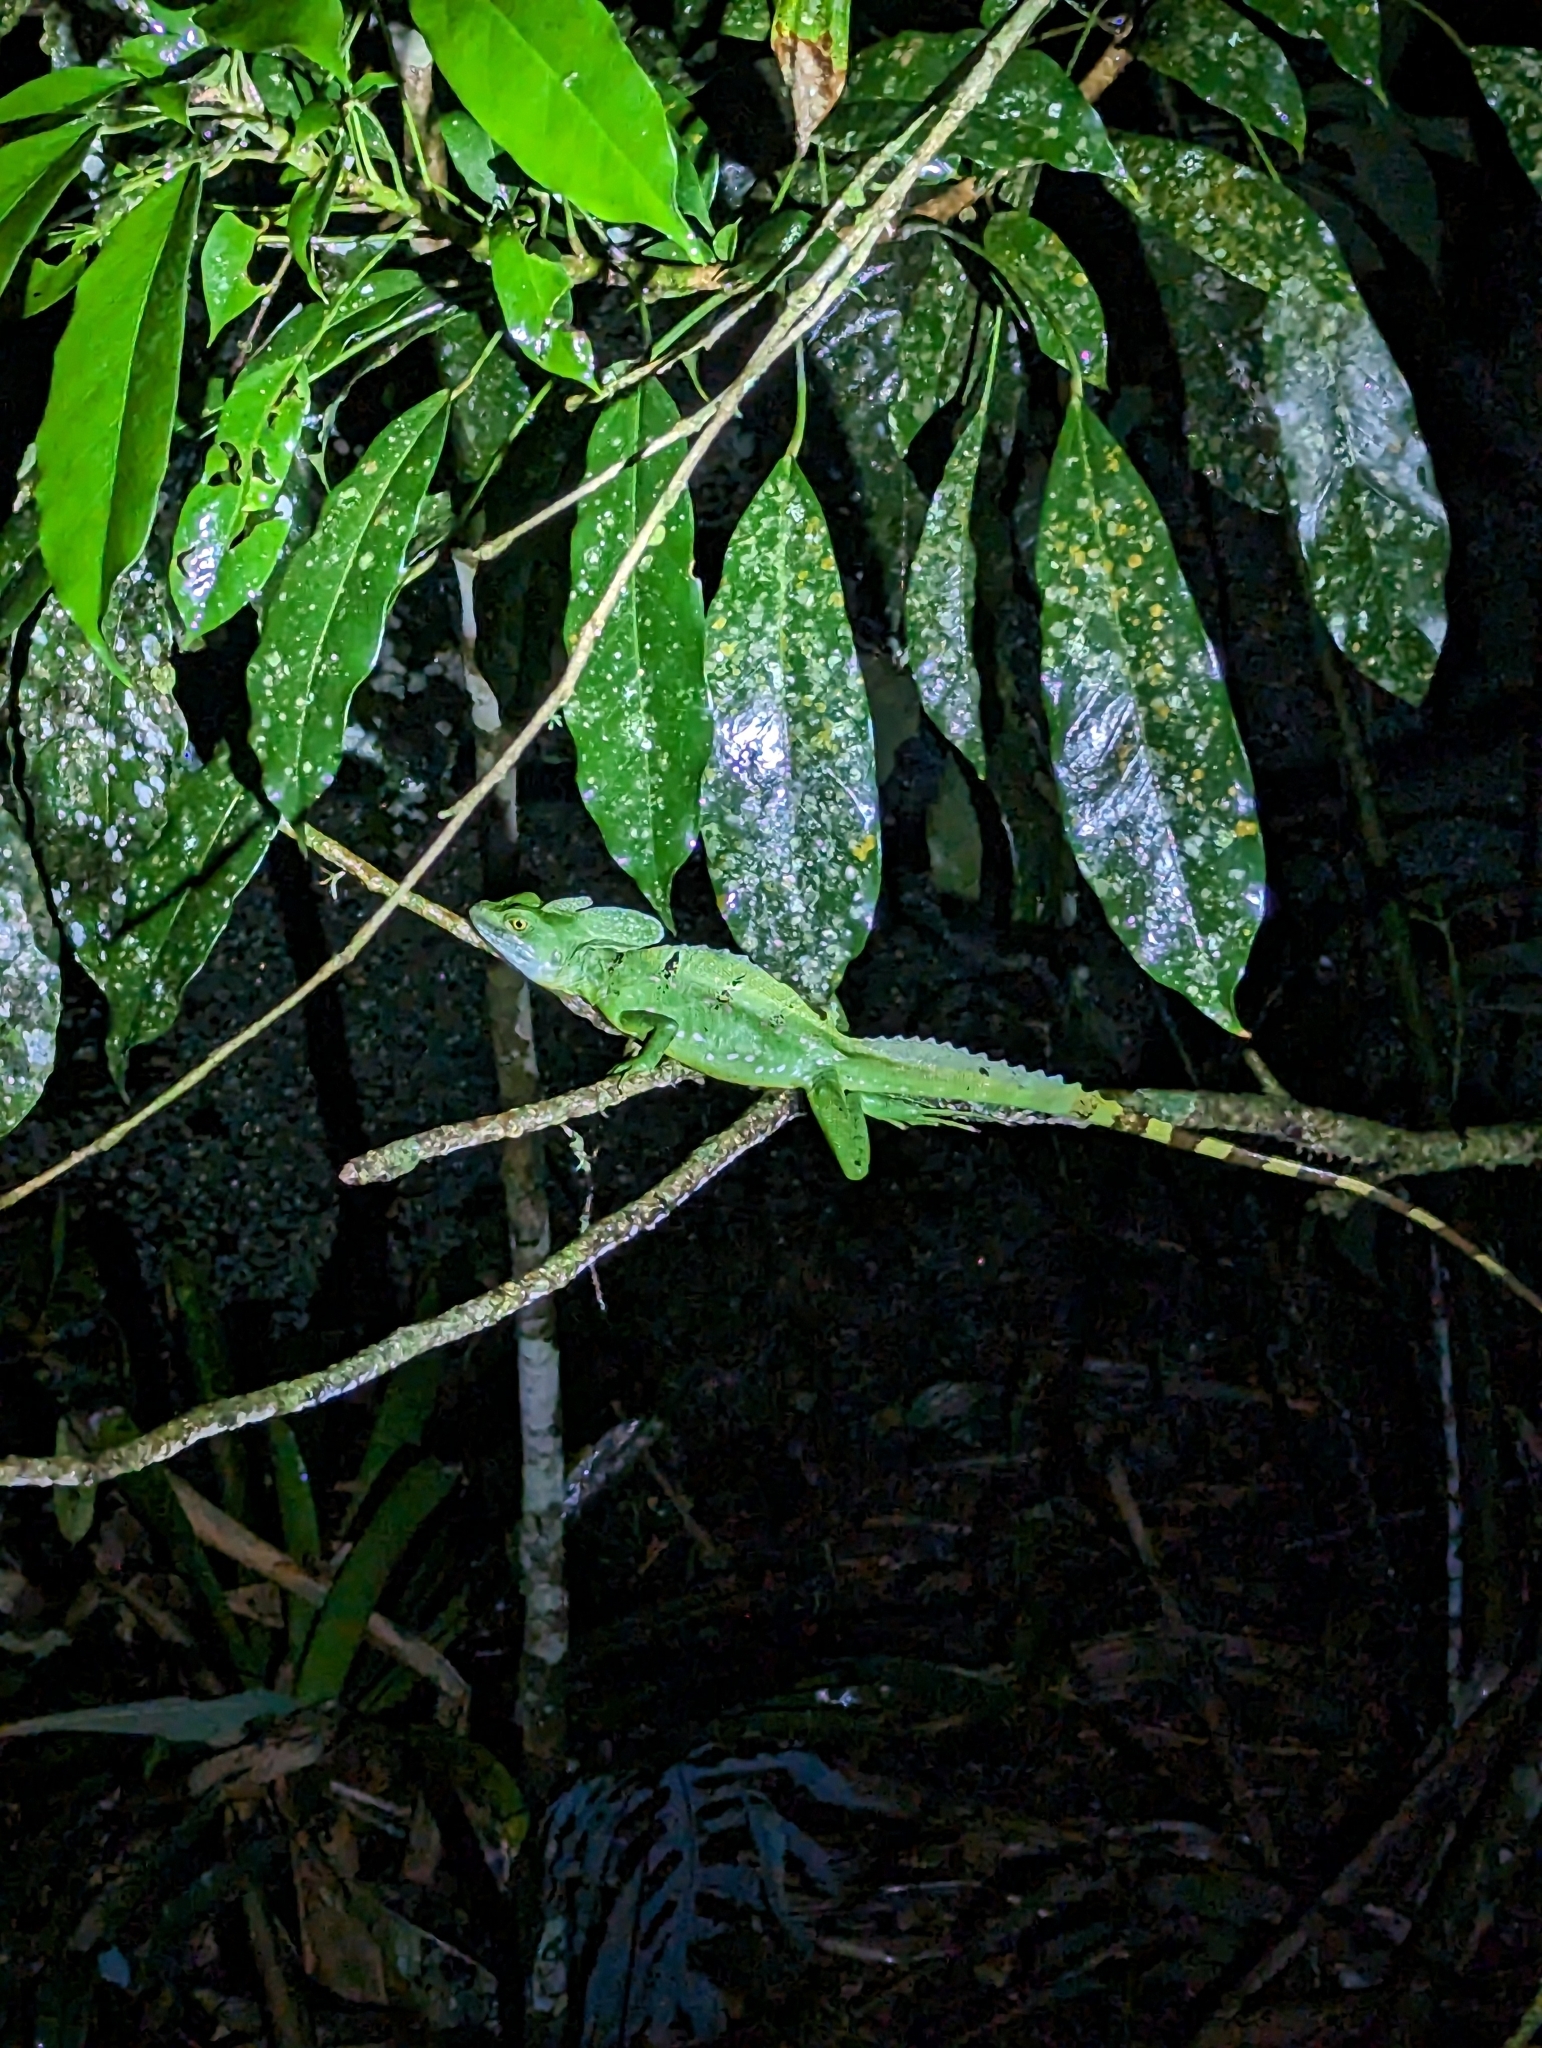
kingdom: Animalia
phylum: Chordata
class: Squamata
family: Corytophanidae
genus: Basiliscus
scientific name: Basiliscus plumifrons
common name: Green basilisk
